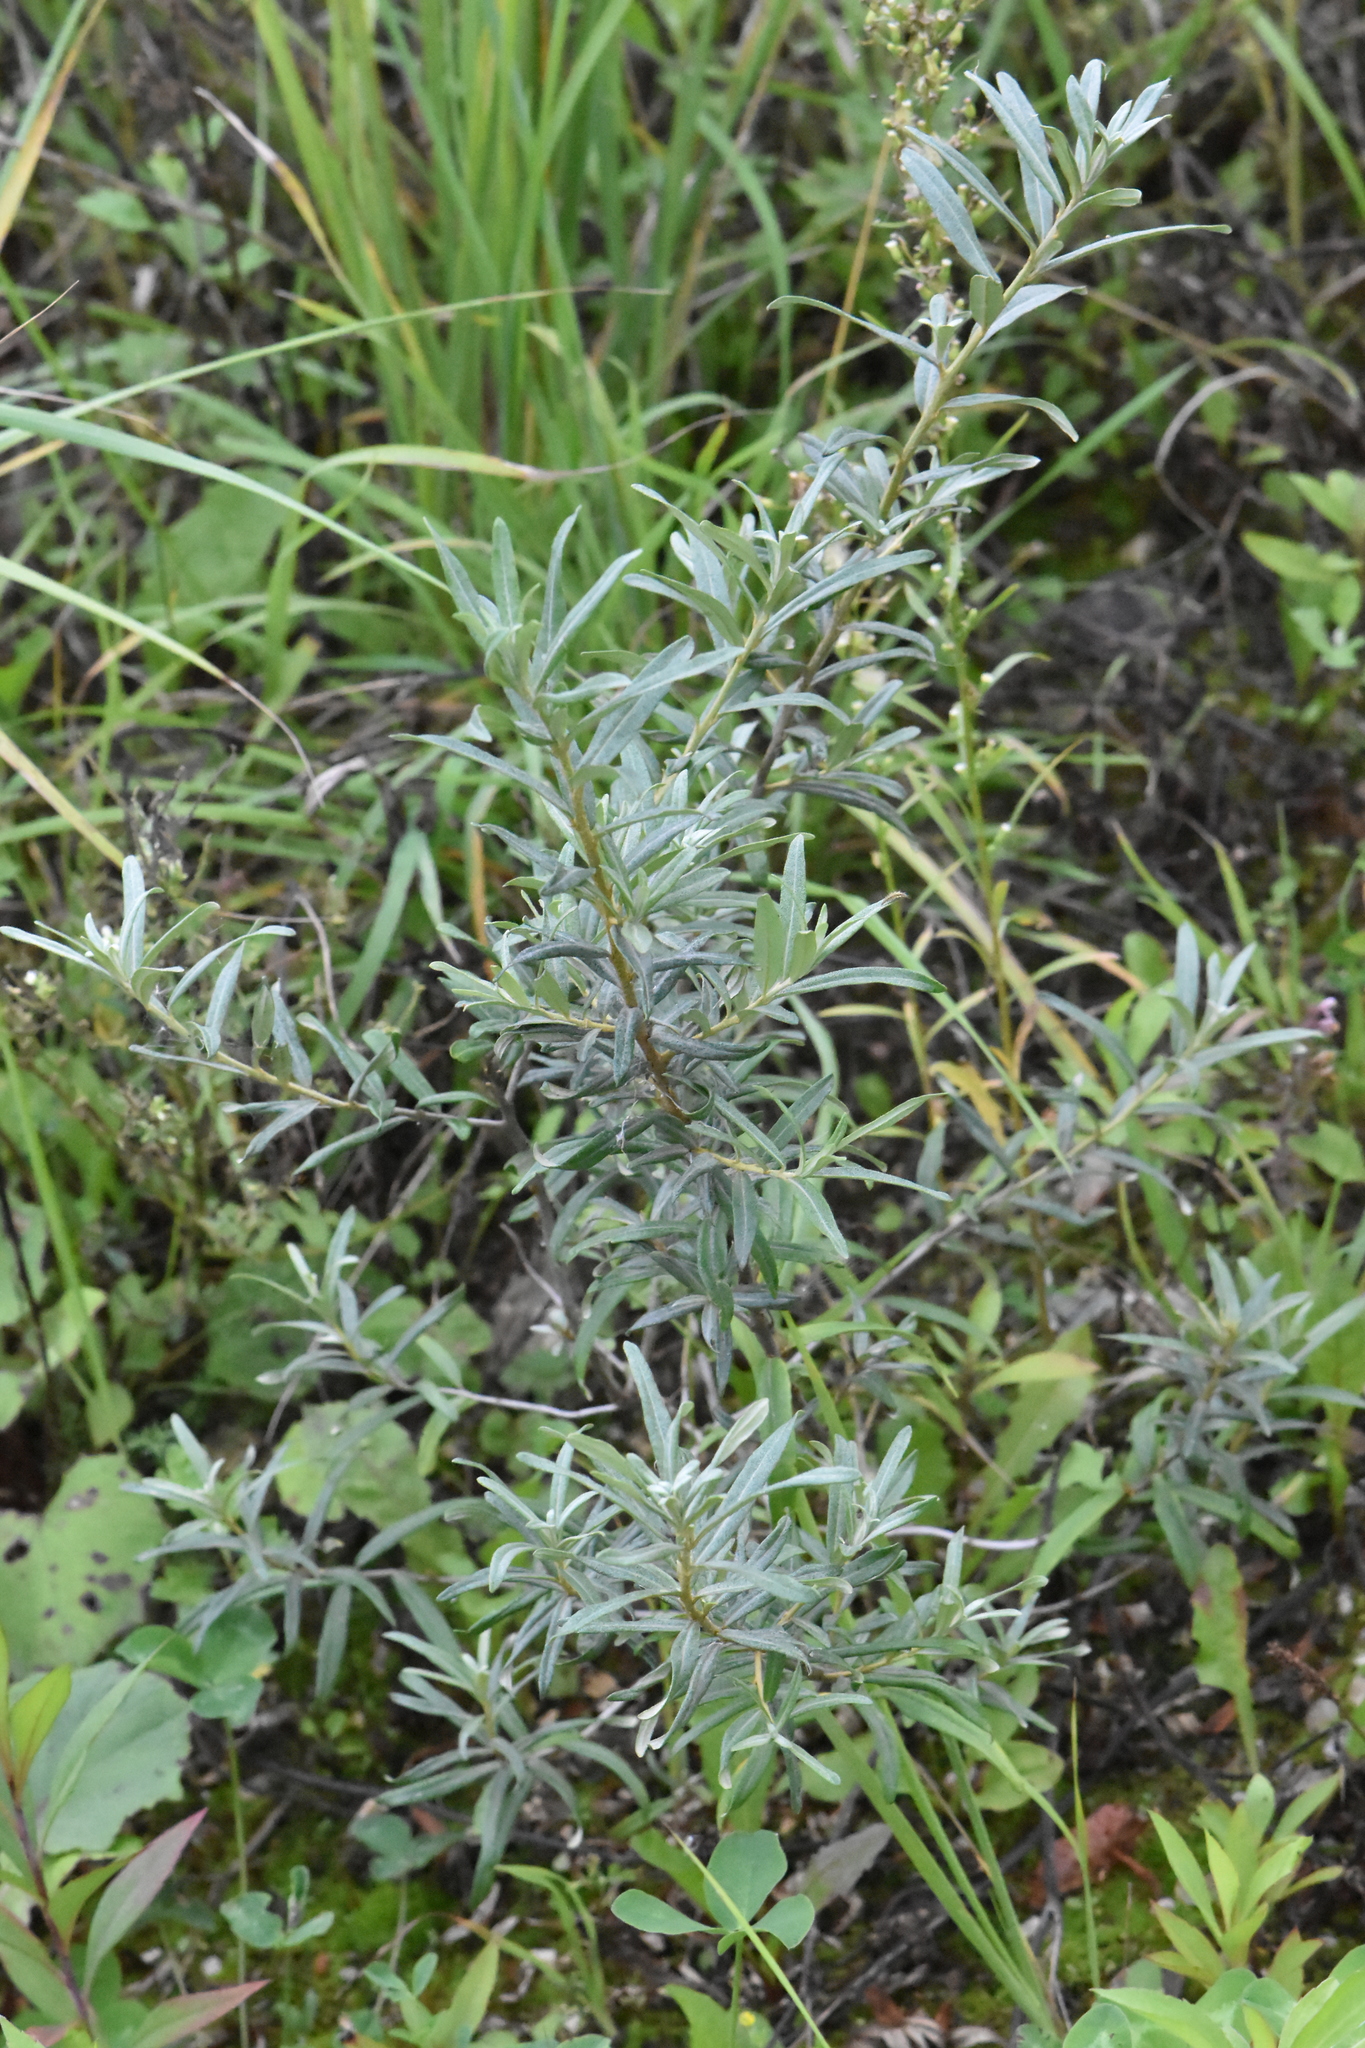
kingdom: Plantae
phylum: Tracheophyta
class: Magnoliopsida
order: Rosales
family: Elaeagnaceae
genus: Hippophae
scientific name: Hippophae rhamnoides
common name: Sea-buckthorn
